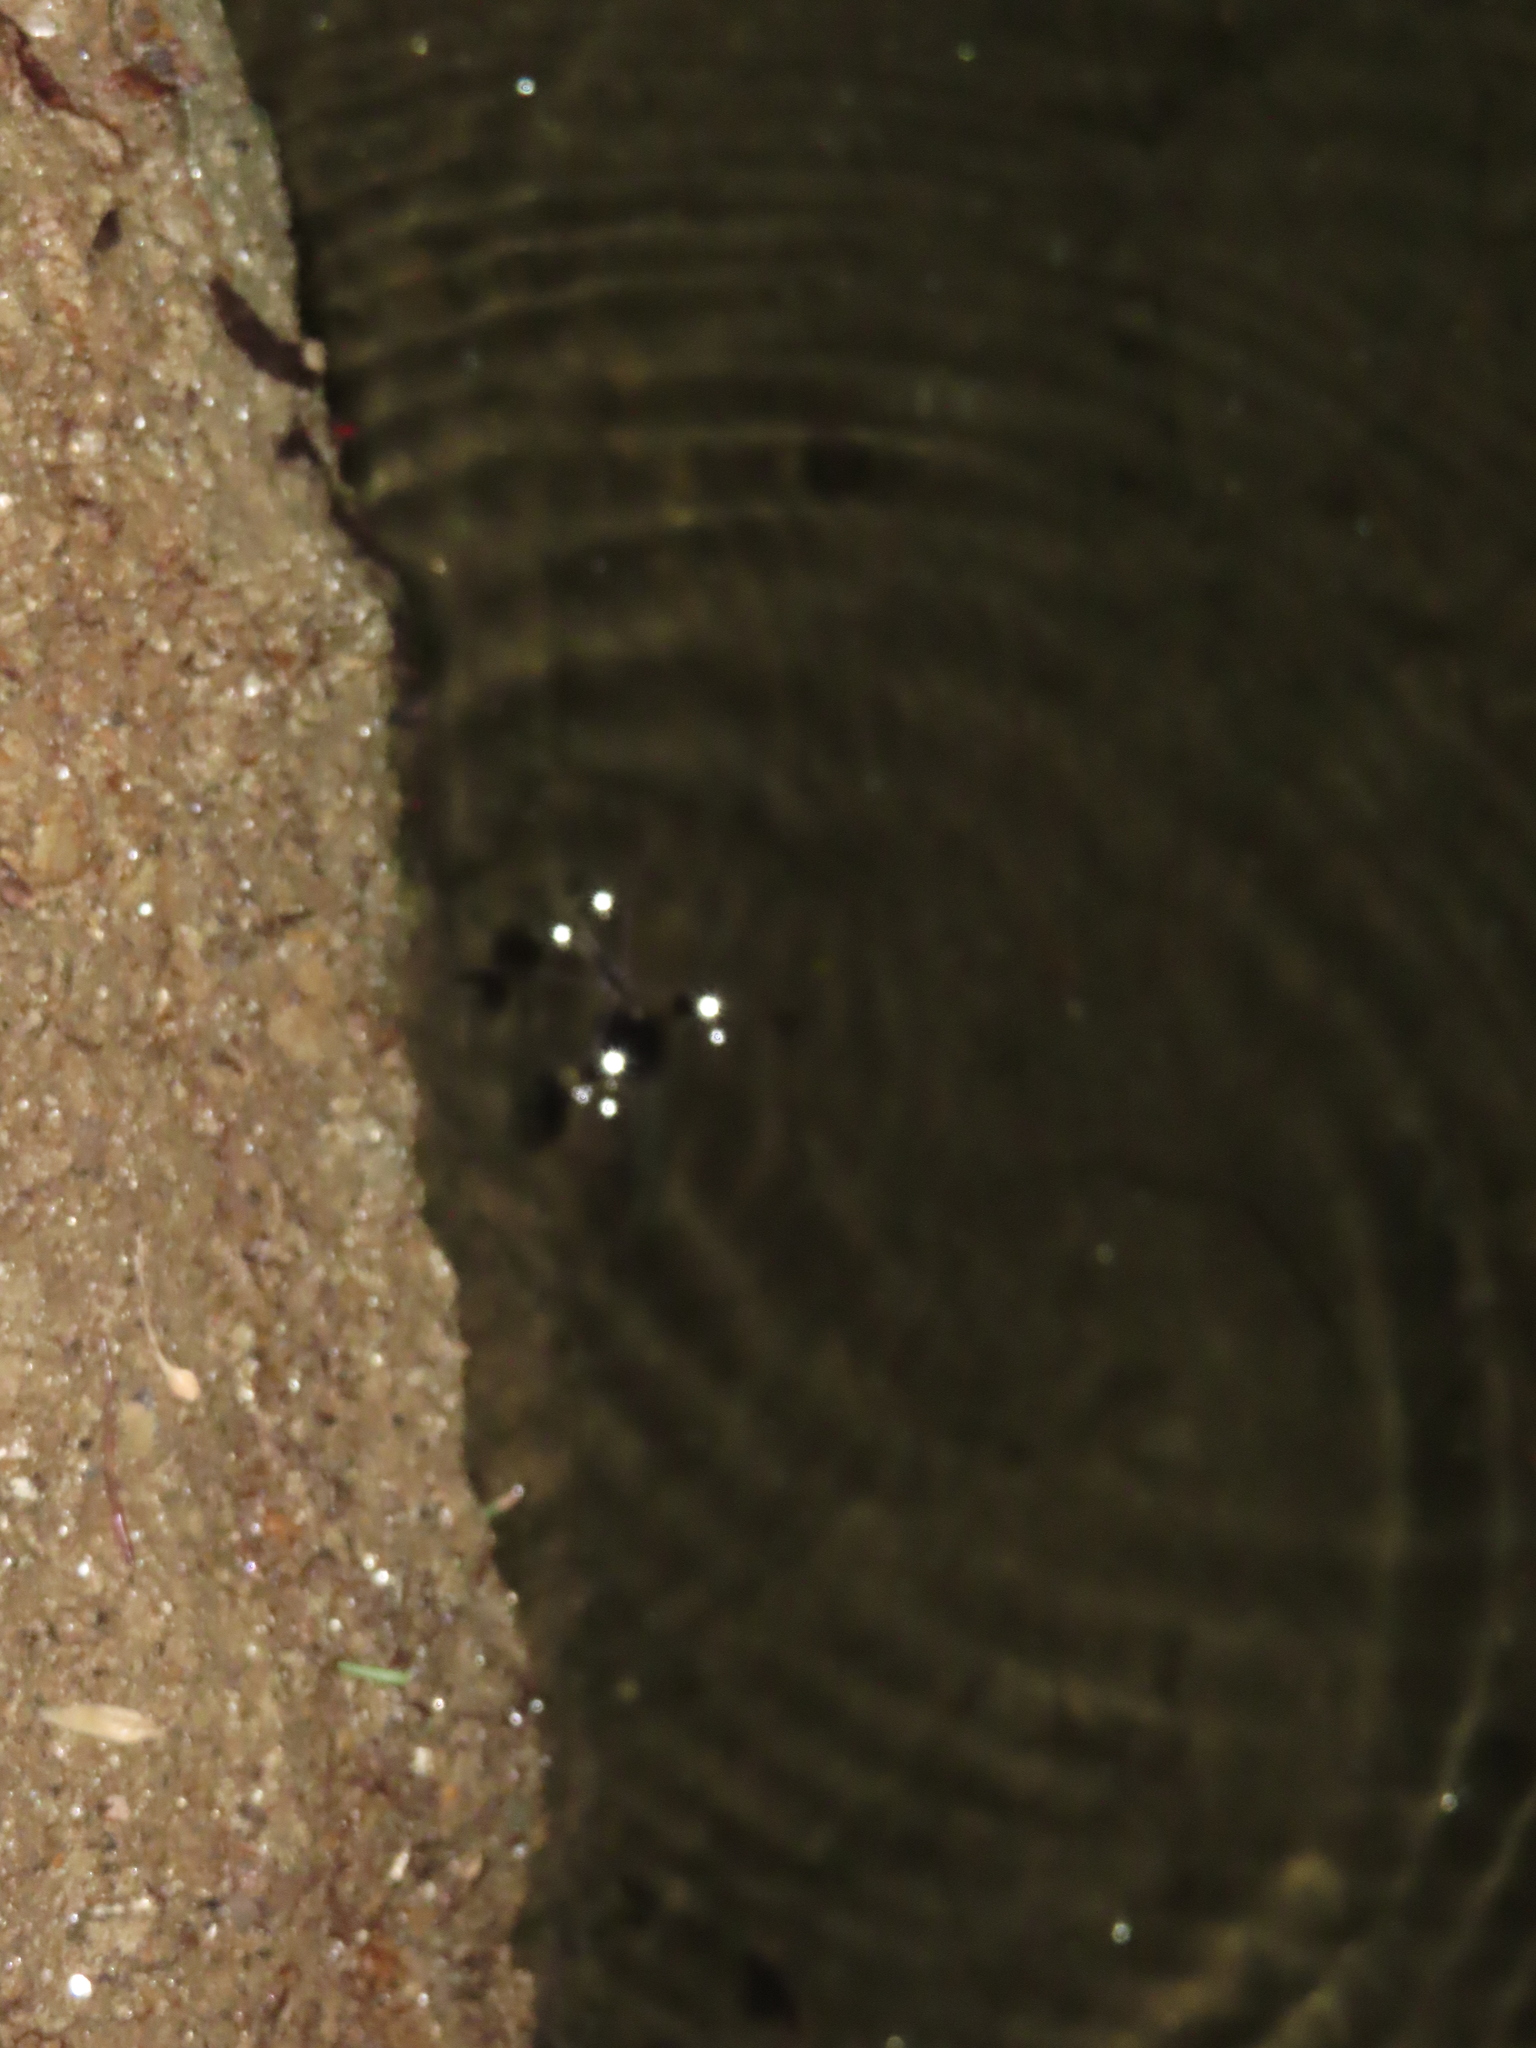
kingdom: Animalia
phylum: Arthropoda
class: Insecta
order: Hemiptera
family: Gerridae
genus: Aquarius
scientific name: Aquarius remigis
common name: Common water strider
